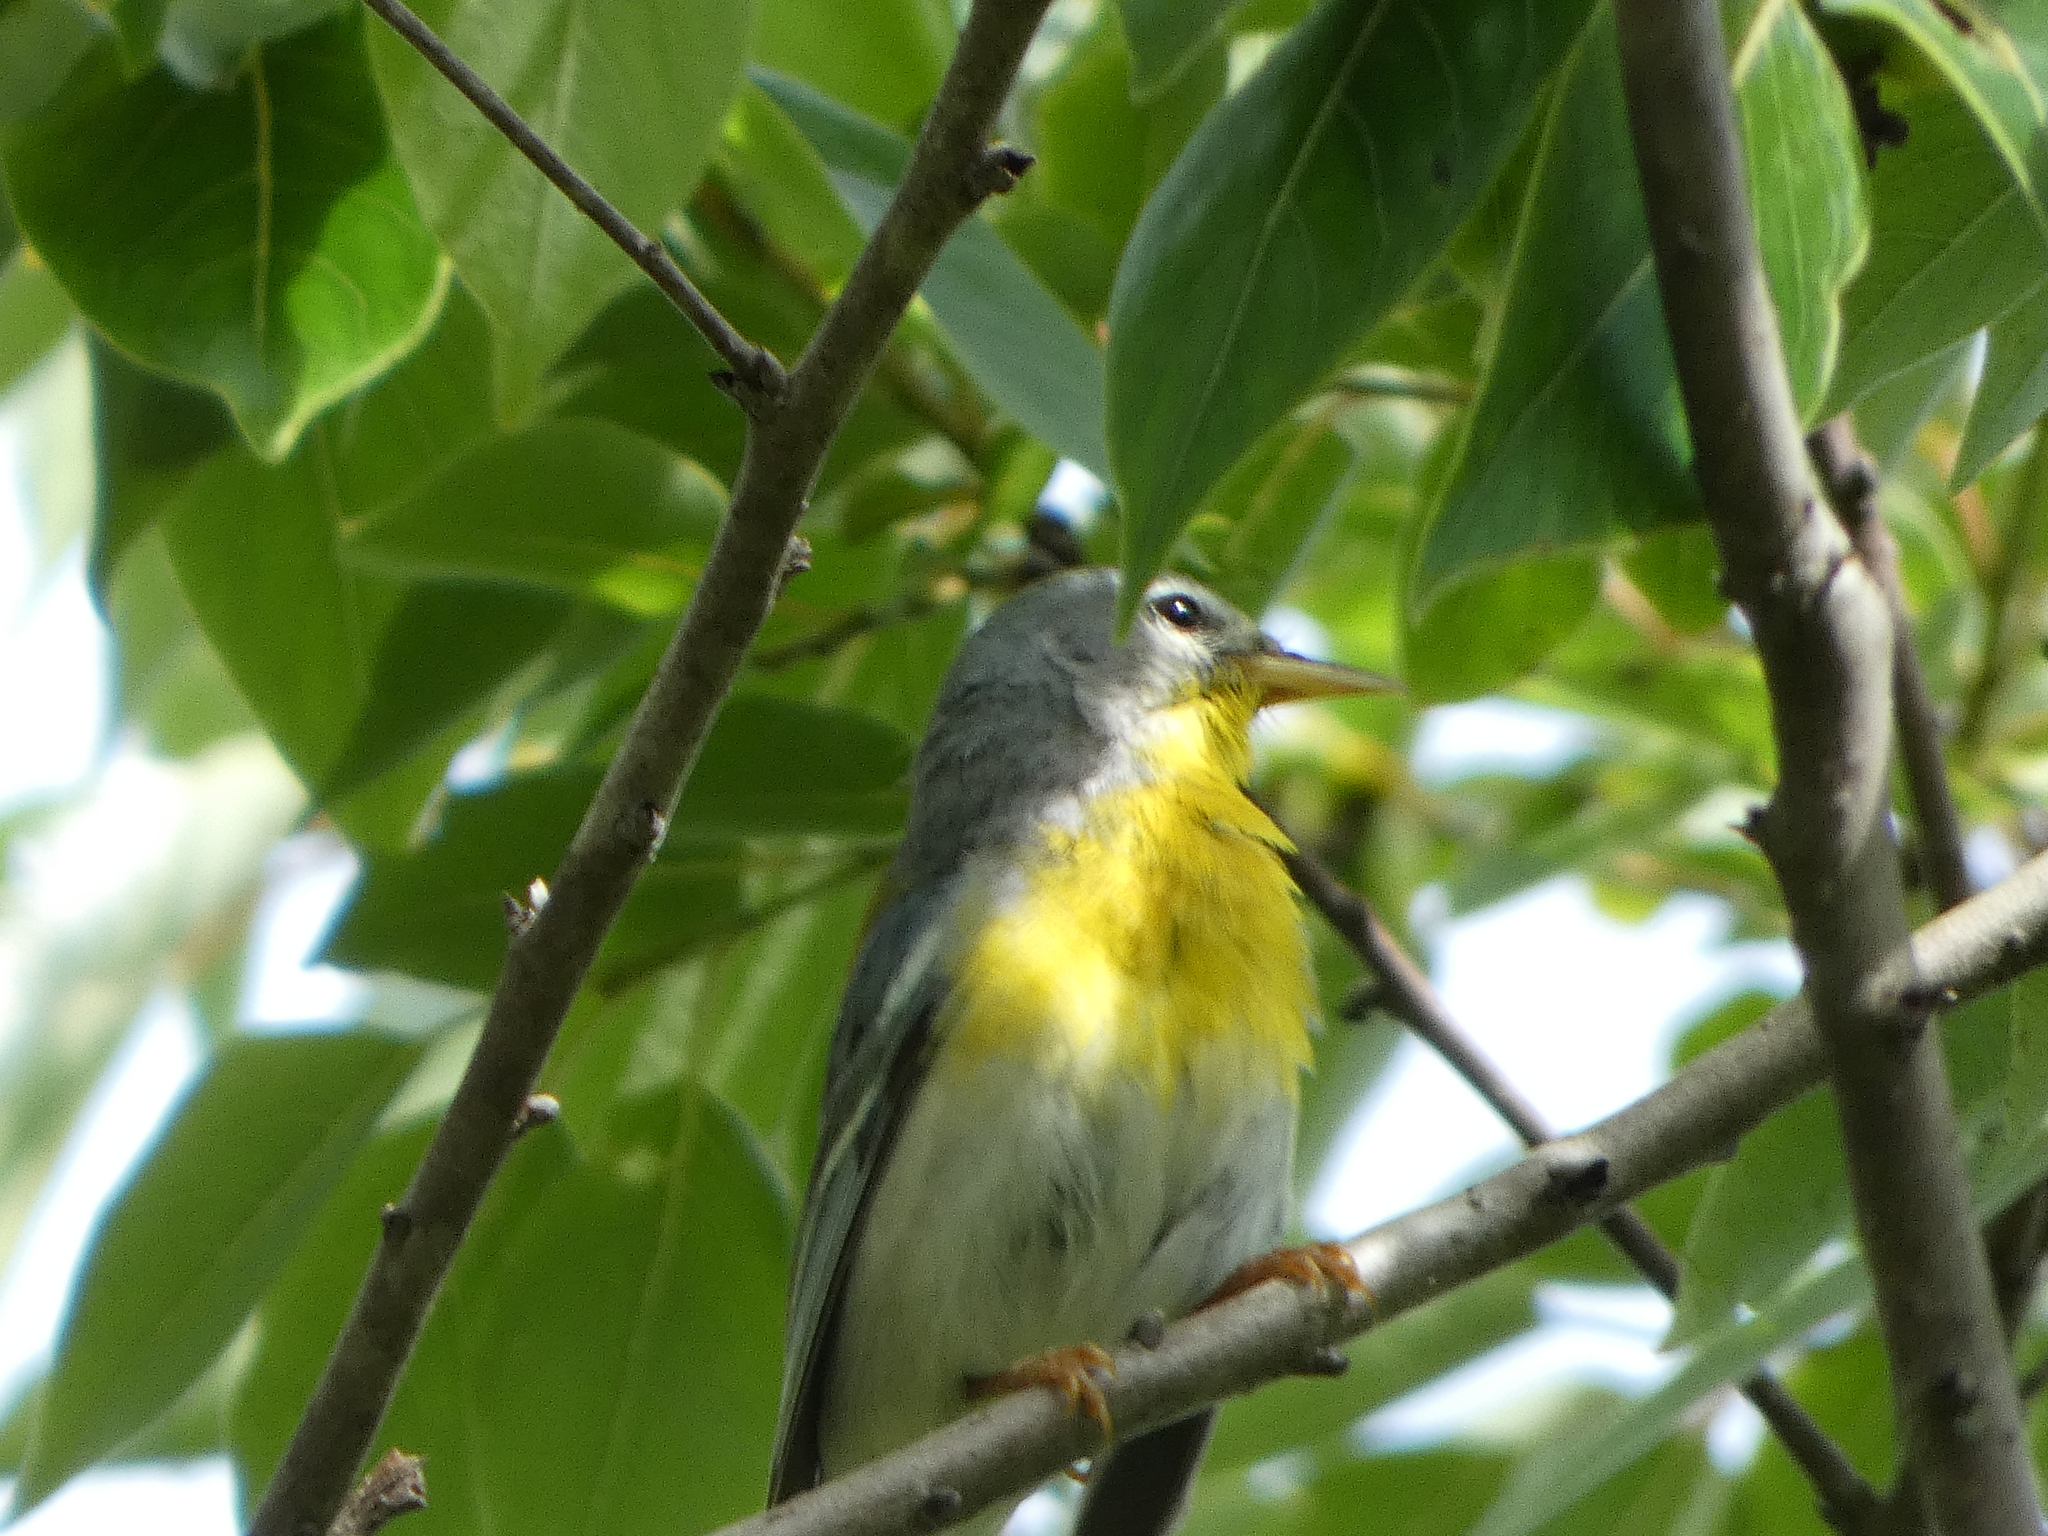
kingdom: Animalia
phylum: Chordata
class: Aves
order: Passeriformes
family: Parulidae
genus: Setophaga
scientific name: Setophaga americana
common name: Northern parula
